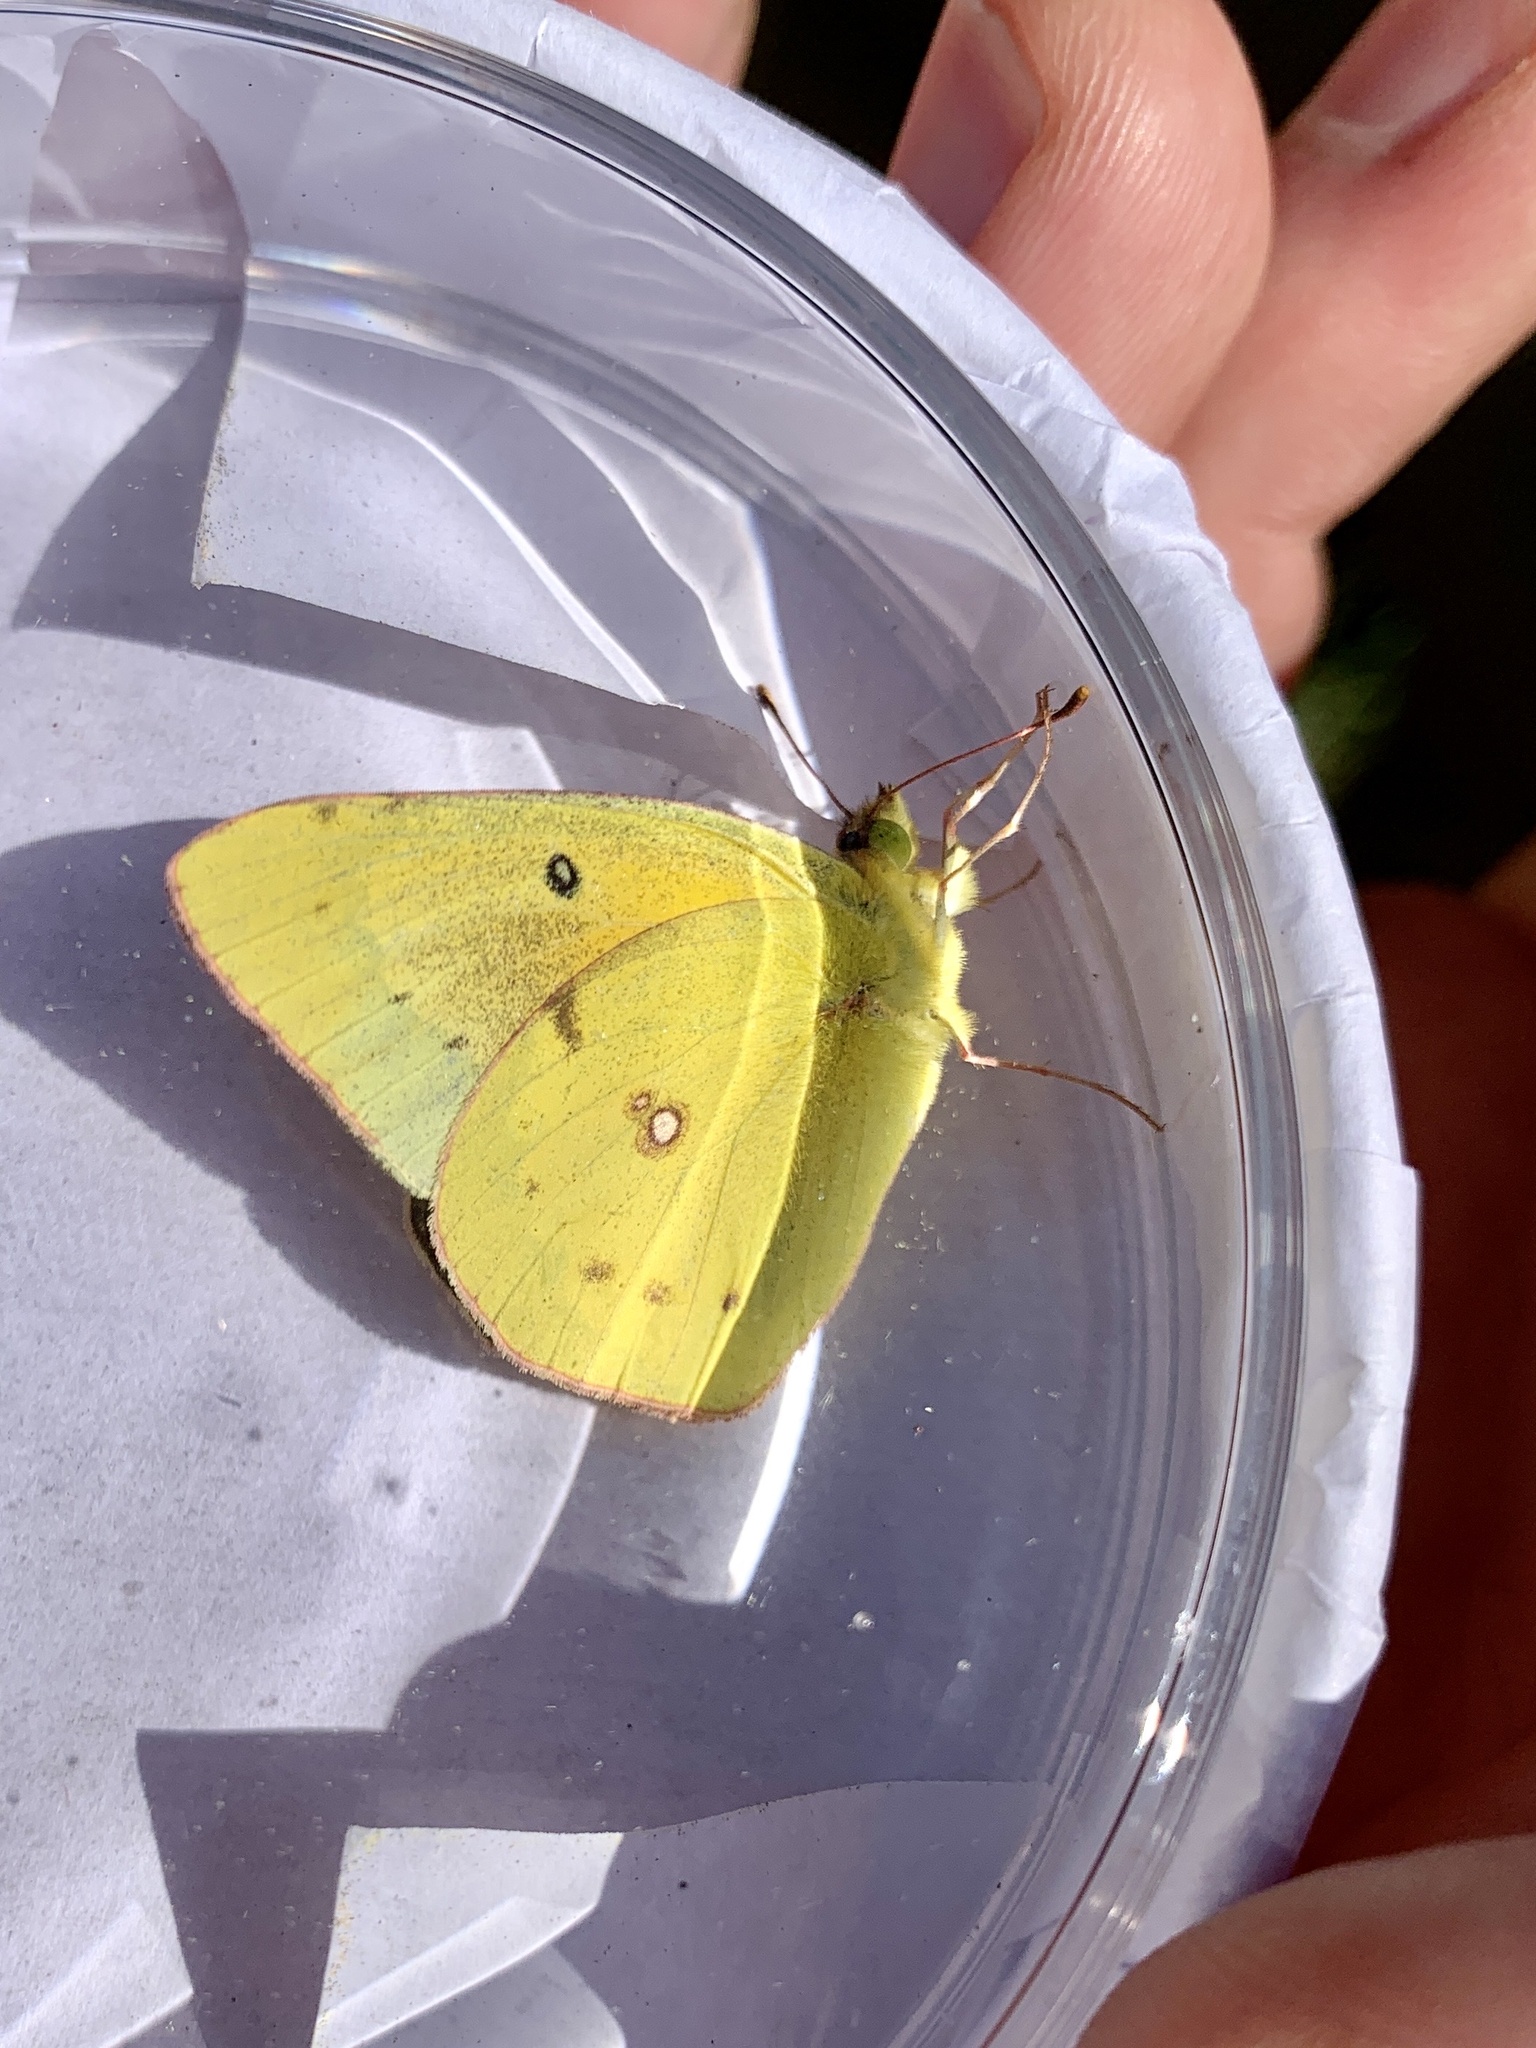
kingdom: Animalia
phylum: Arthropoda
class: Insecta
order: Lepidoptera
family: Pieridae
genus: Colias
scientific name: Colias eurytheme
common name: Alfalfa butterfly
